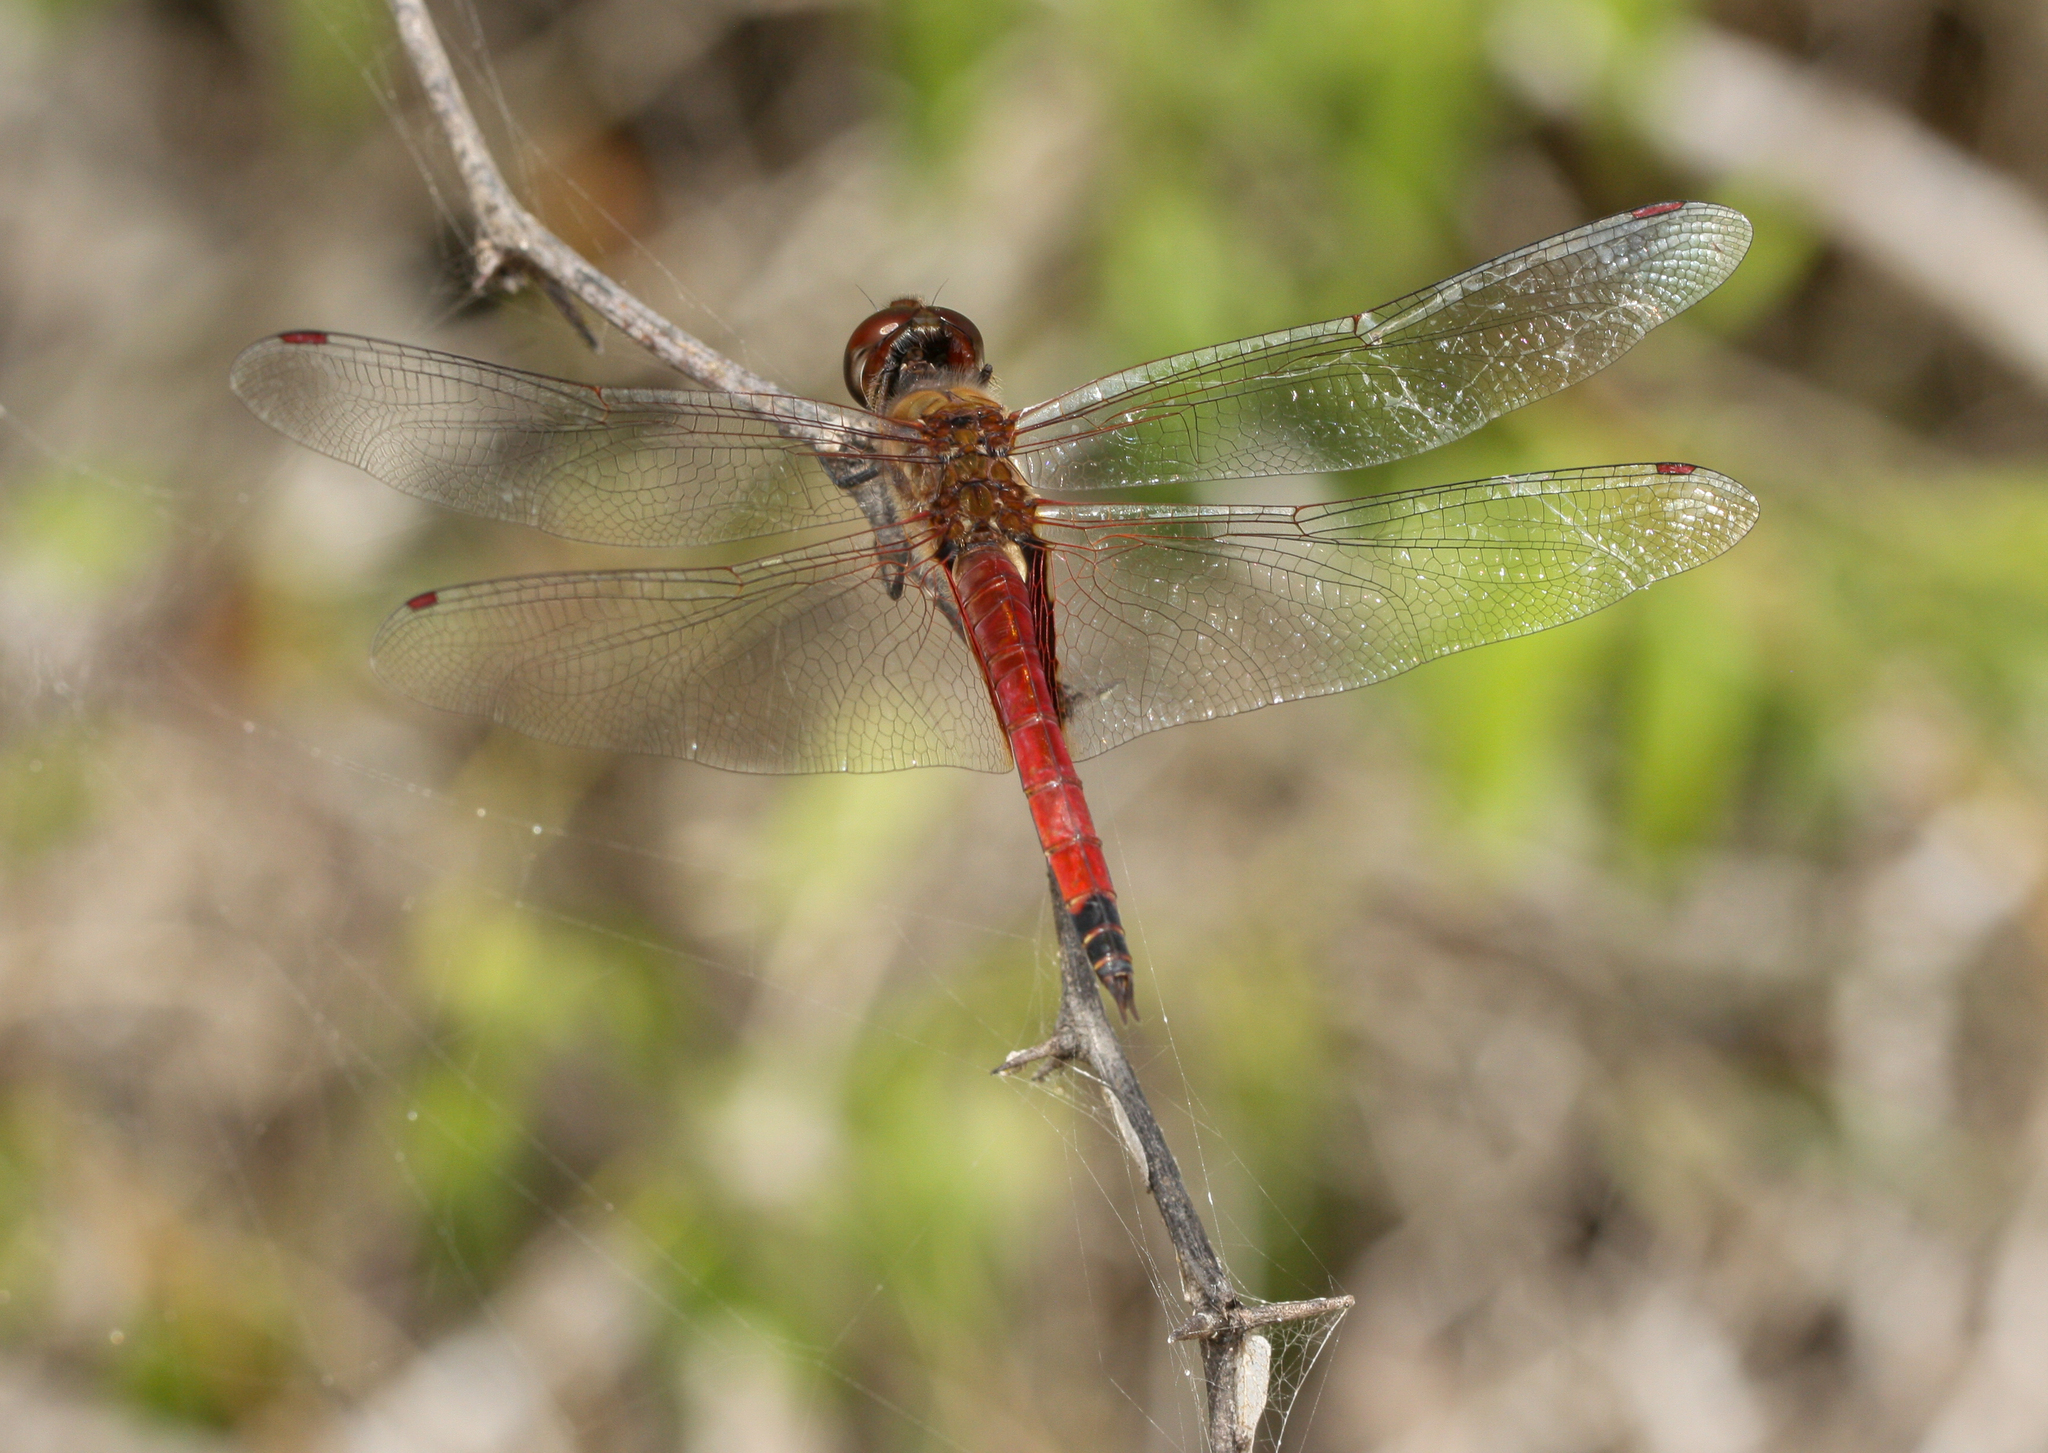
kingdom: Animalia
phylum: Arthropoda
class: Insecta
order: Odonata
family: Libellulidae
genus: Tramea
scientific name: Tramea darwini
